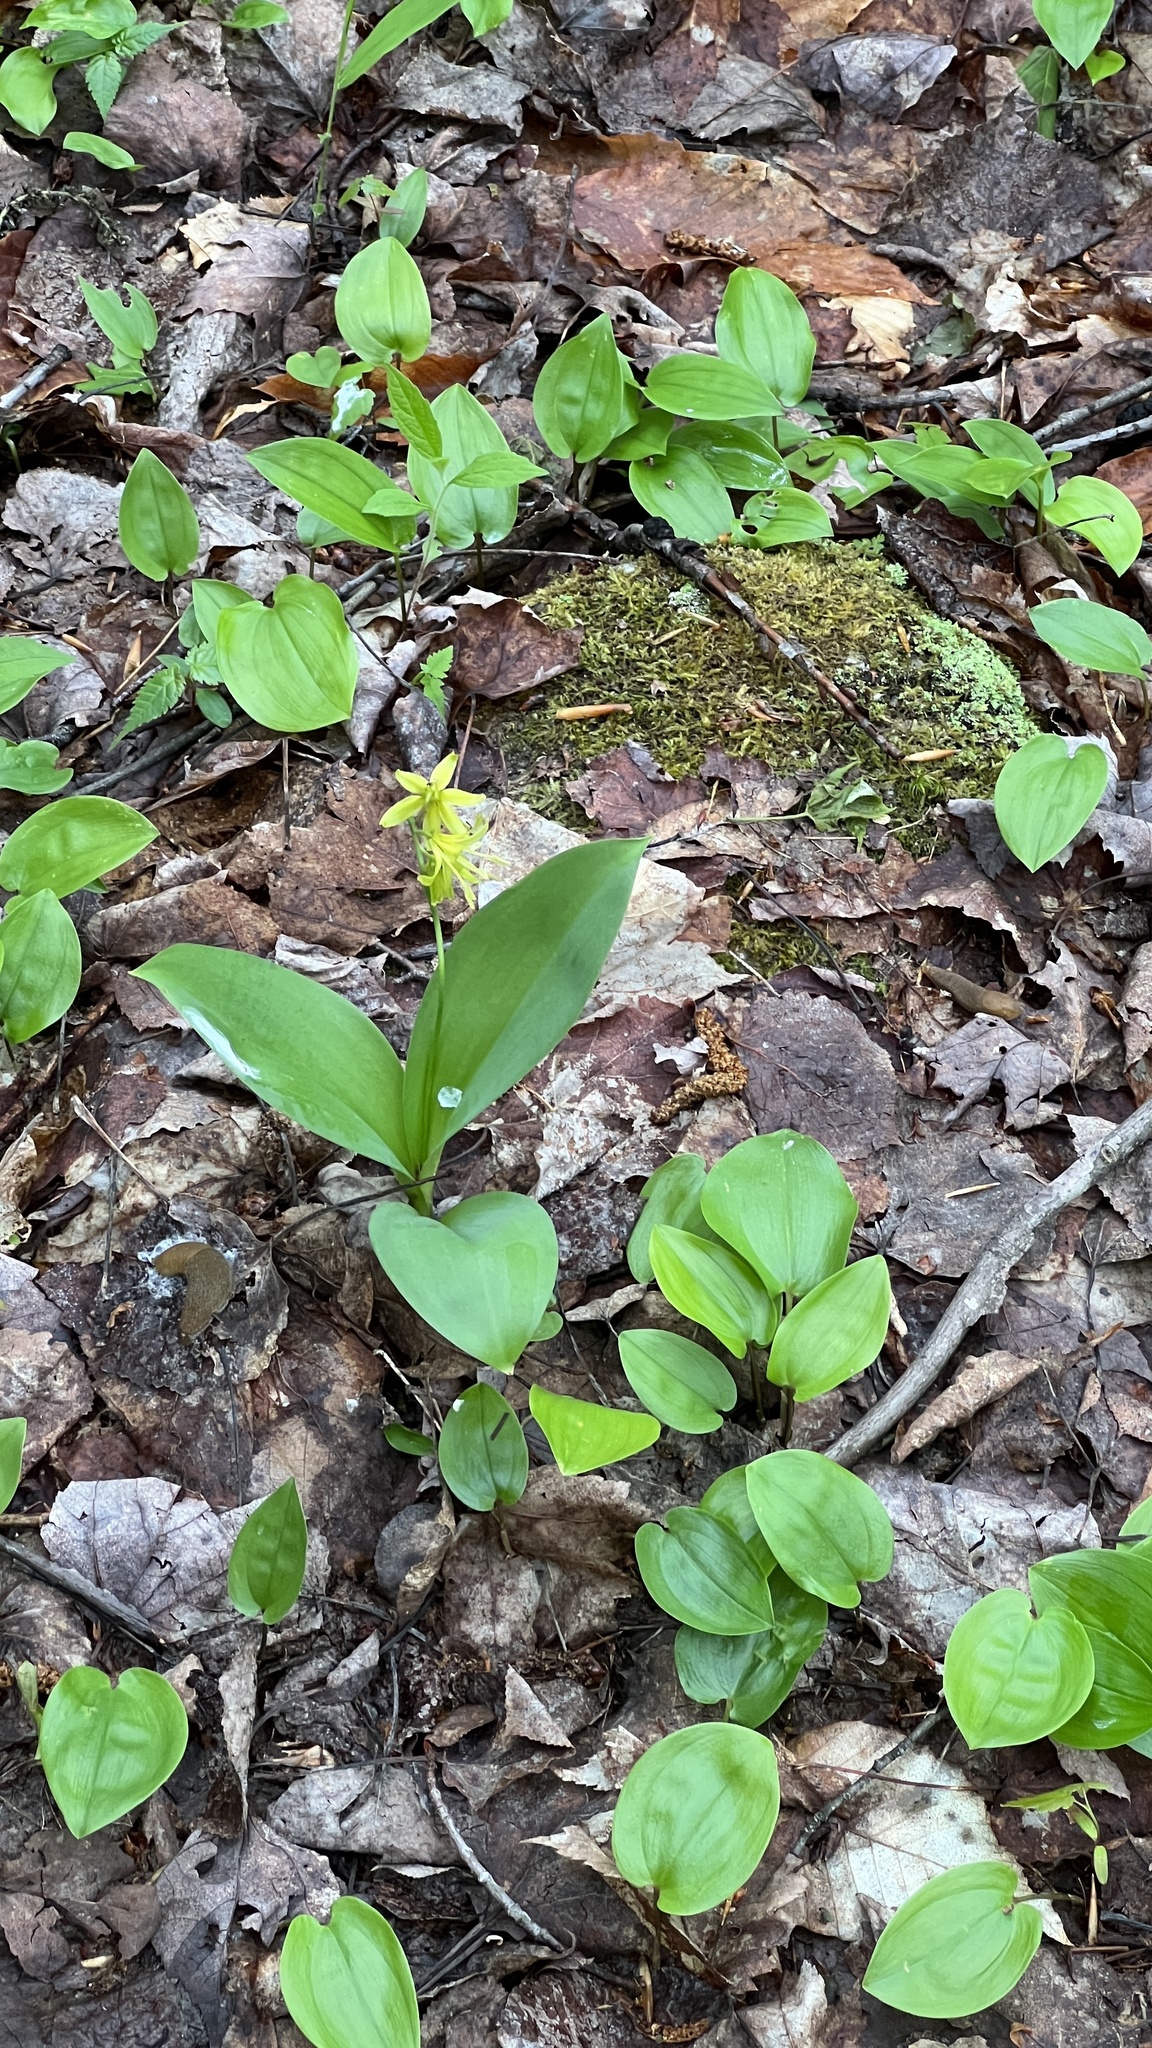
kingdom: Plantae
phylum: Tracheophyta
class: Liliopsida
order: Liliales
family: Liliaceae
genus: Clintonia
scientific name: Clintonia borealis
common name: Yellow clintonia
